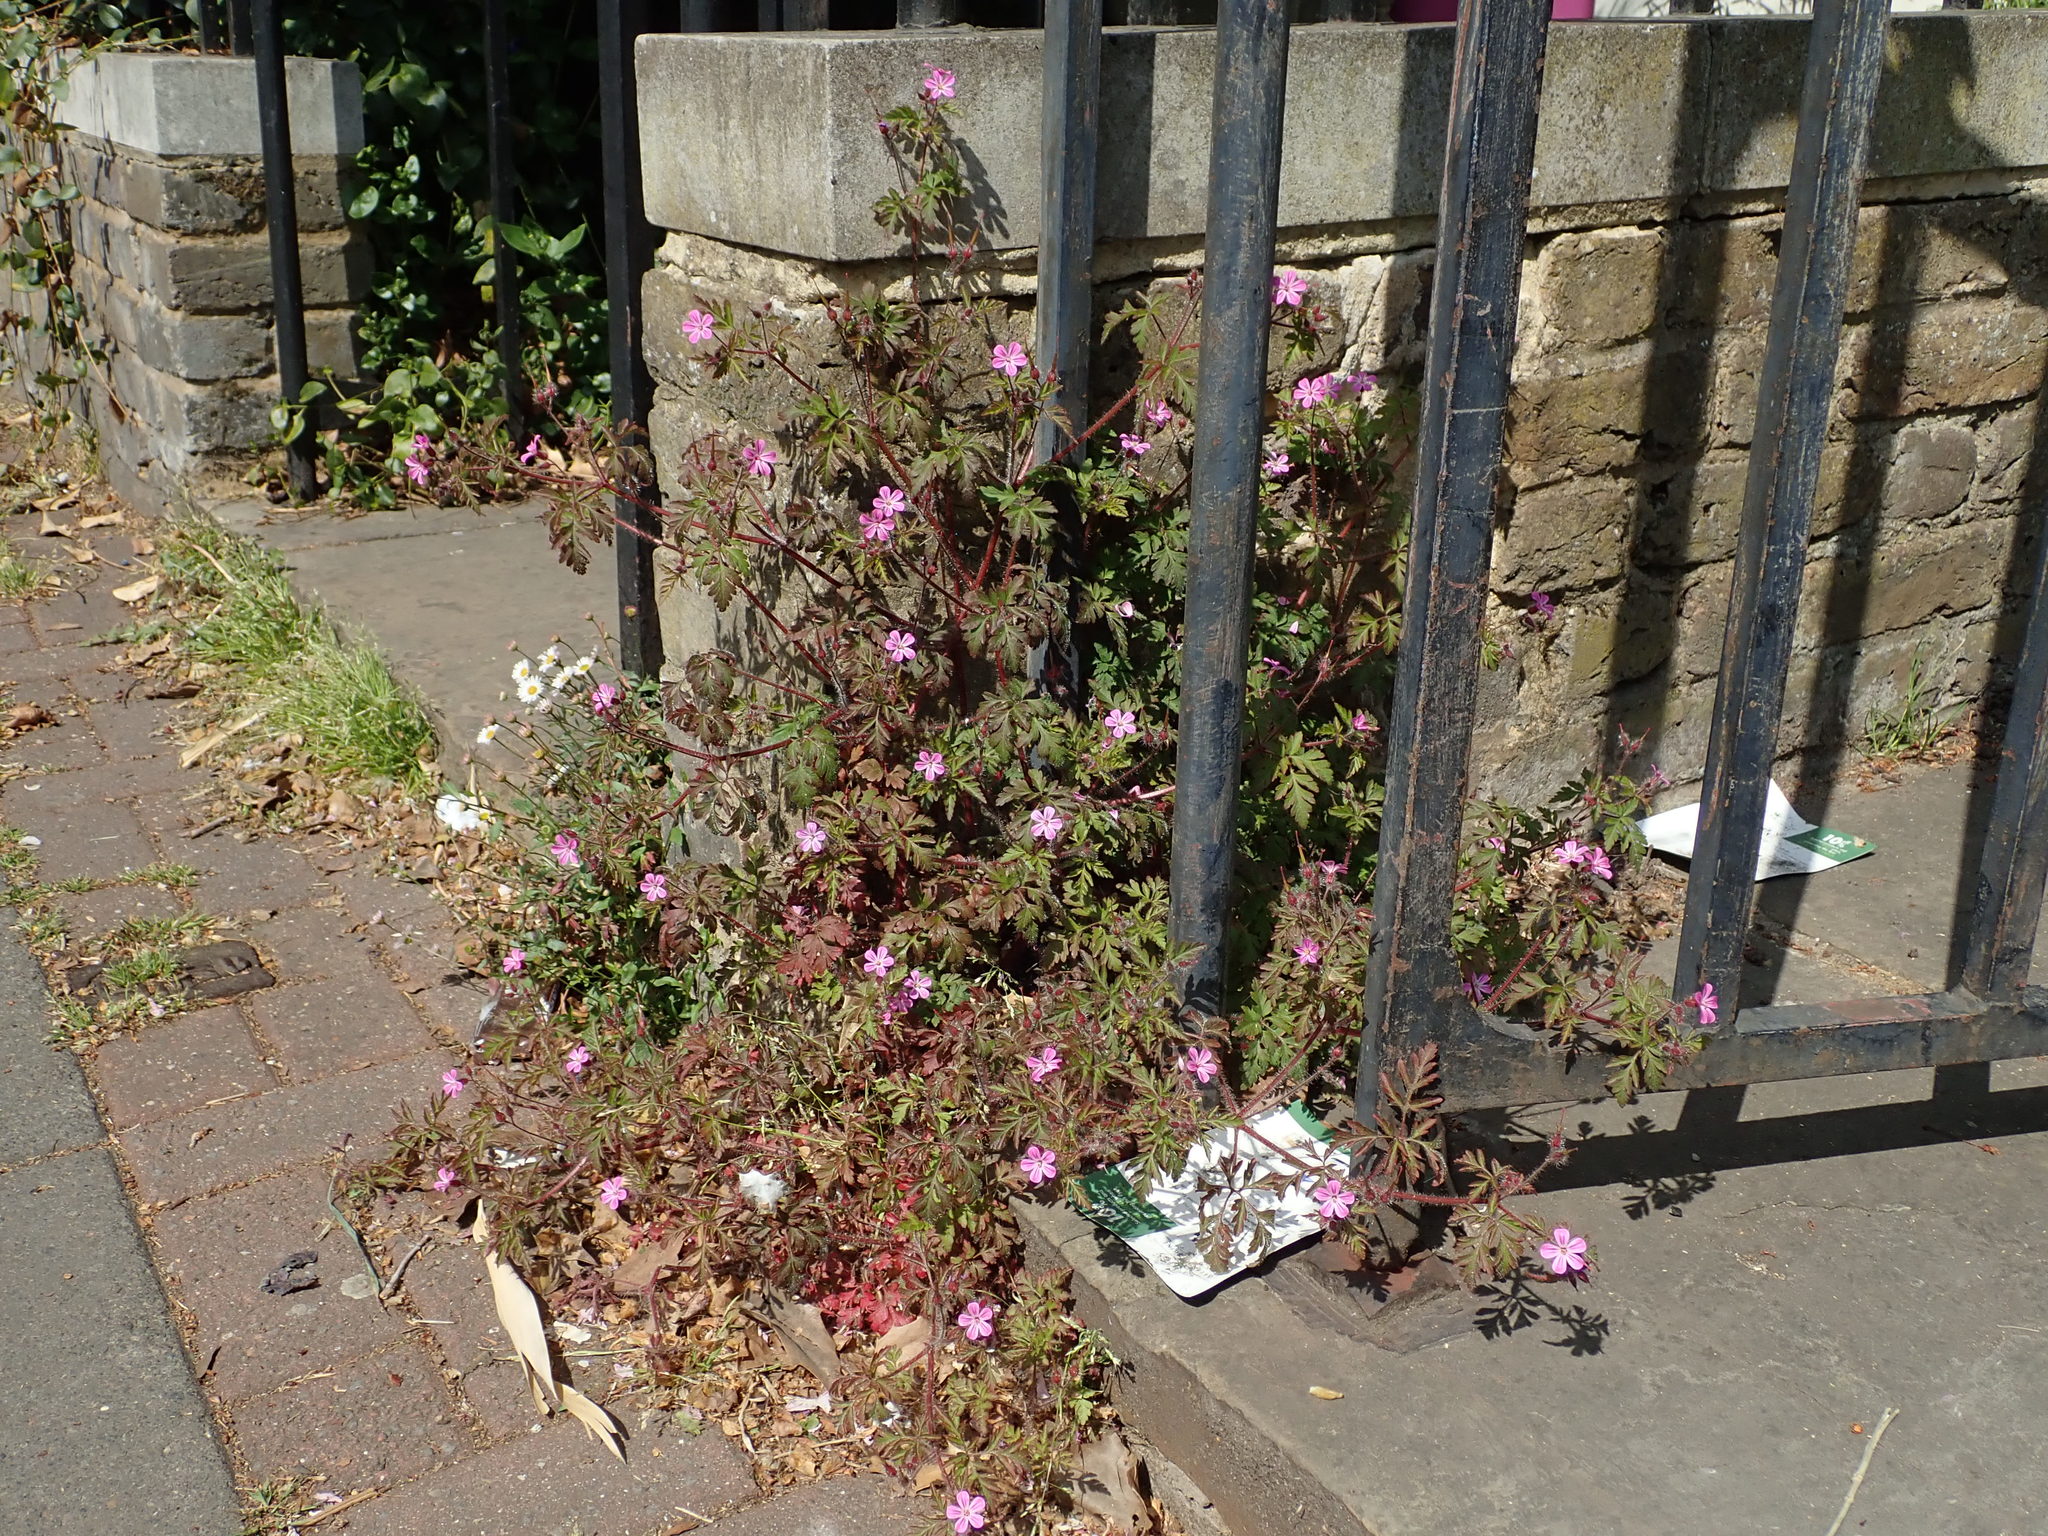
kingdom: Plantae
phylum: Tracheophyta
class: Magnoliopsida
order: Geraniales
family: Geraniaceae
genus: Geranium
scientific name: Geranium robertianum
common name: Herb-robert
